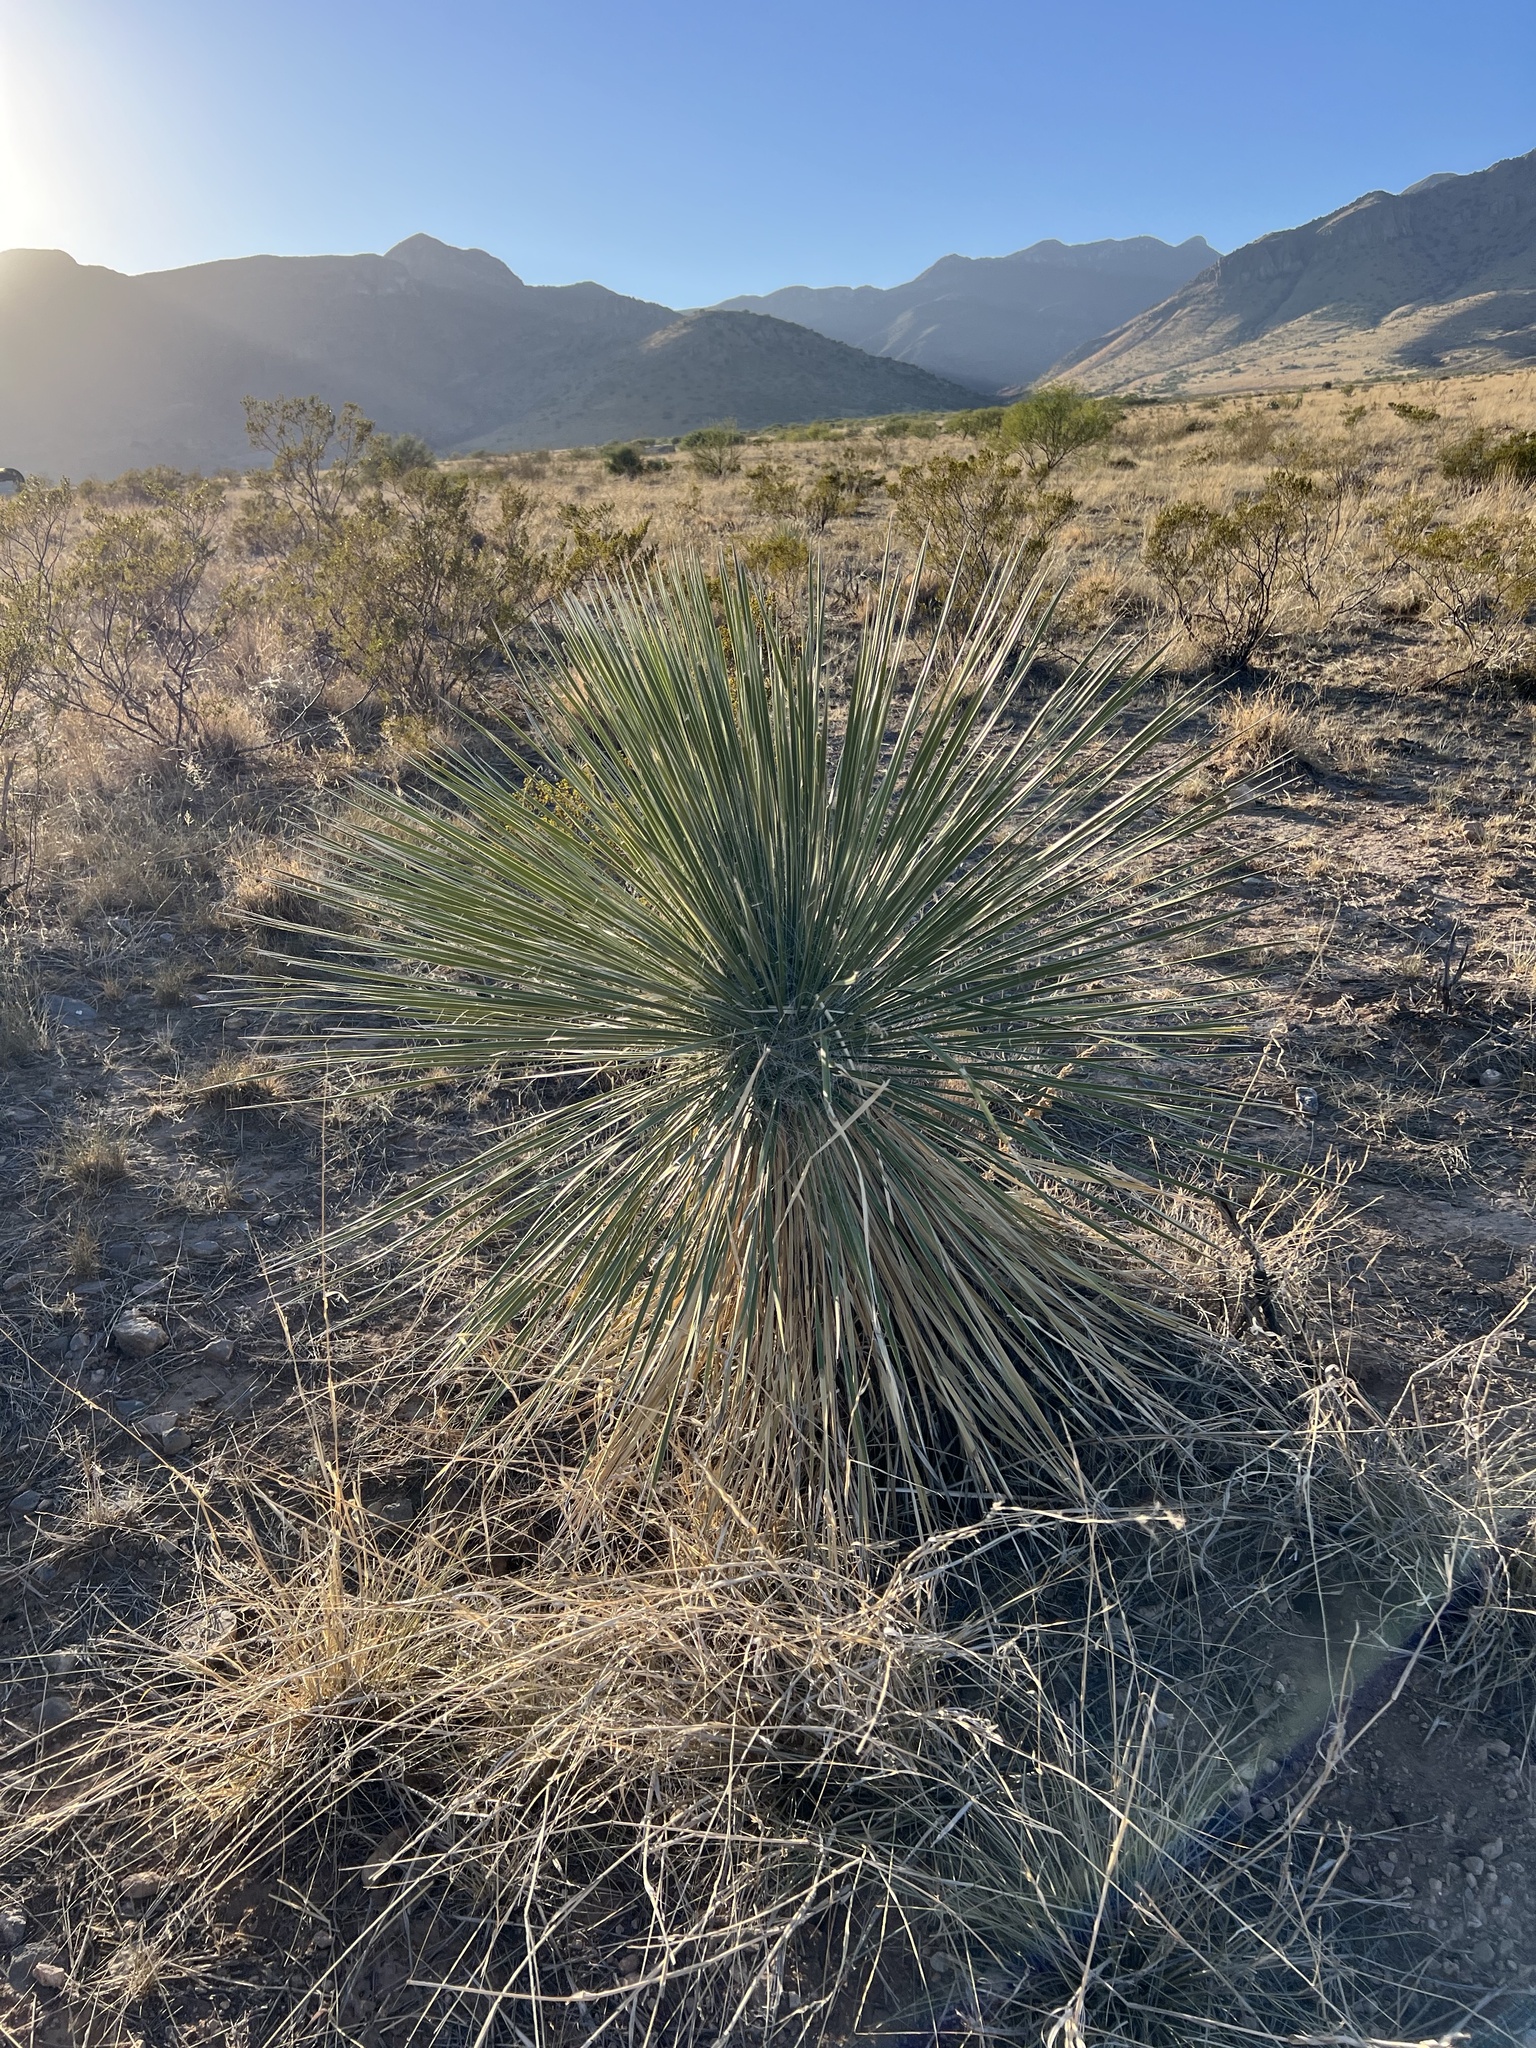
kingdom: Plantae
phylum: Tracheophyta
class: Liliopsida
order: Asparagales
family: Asparagaceae
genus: Yucca
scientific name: Yucca elata
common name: Palmella
